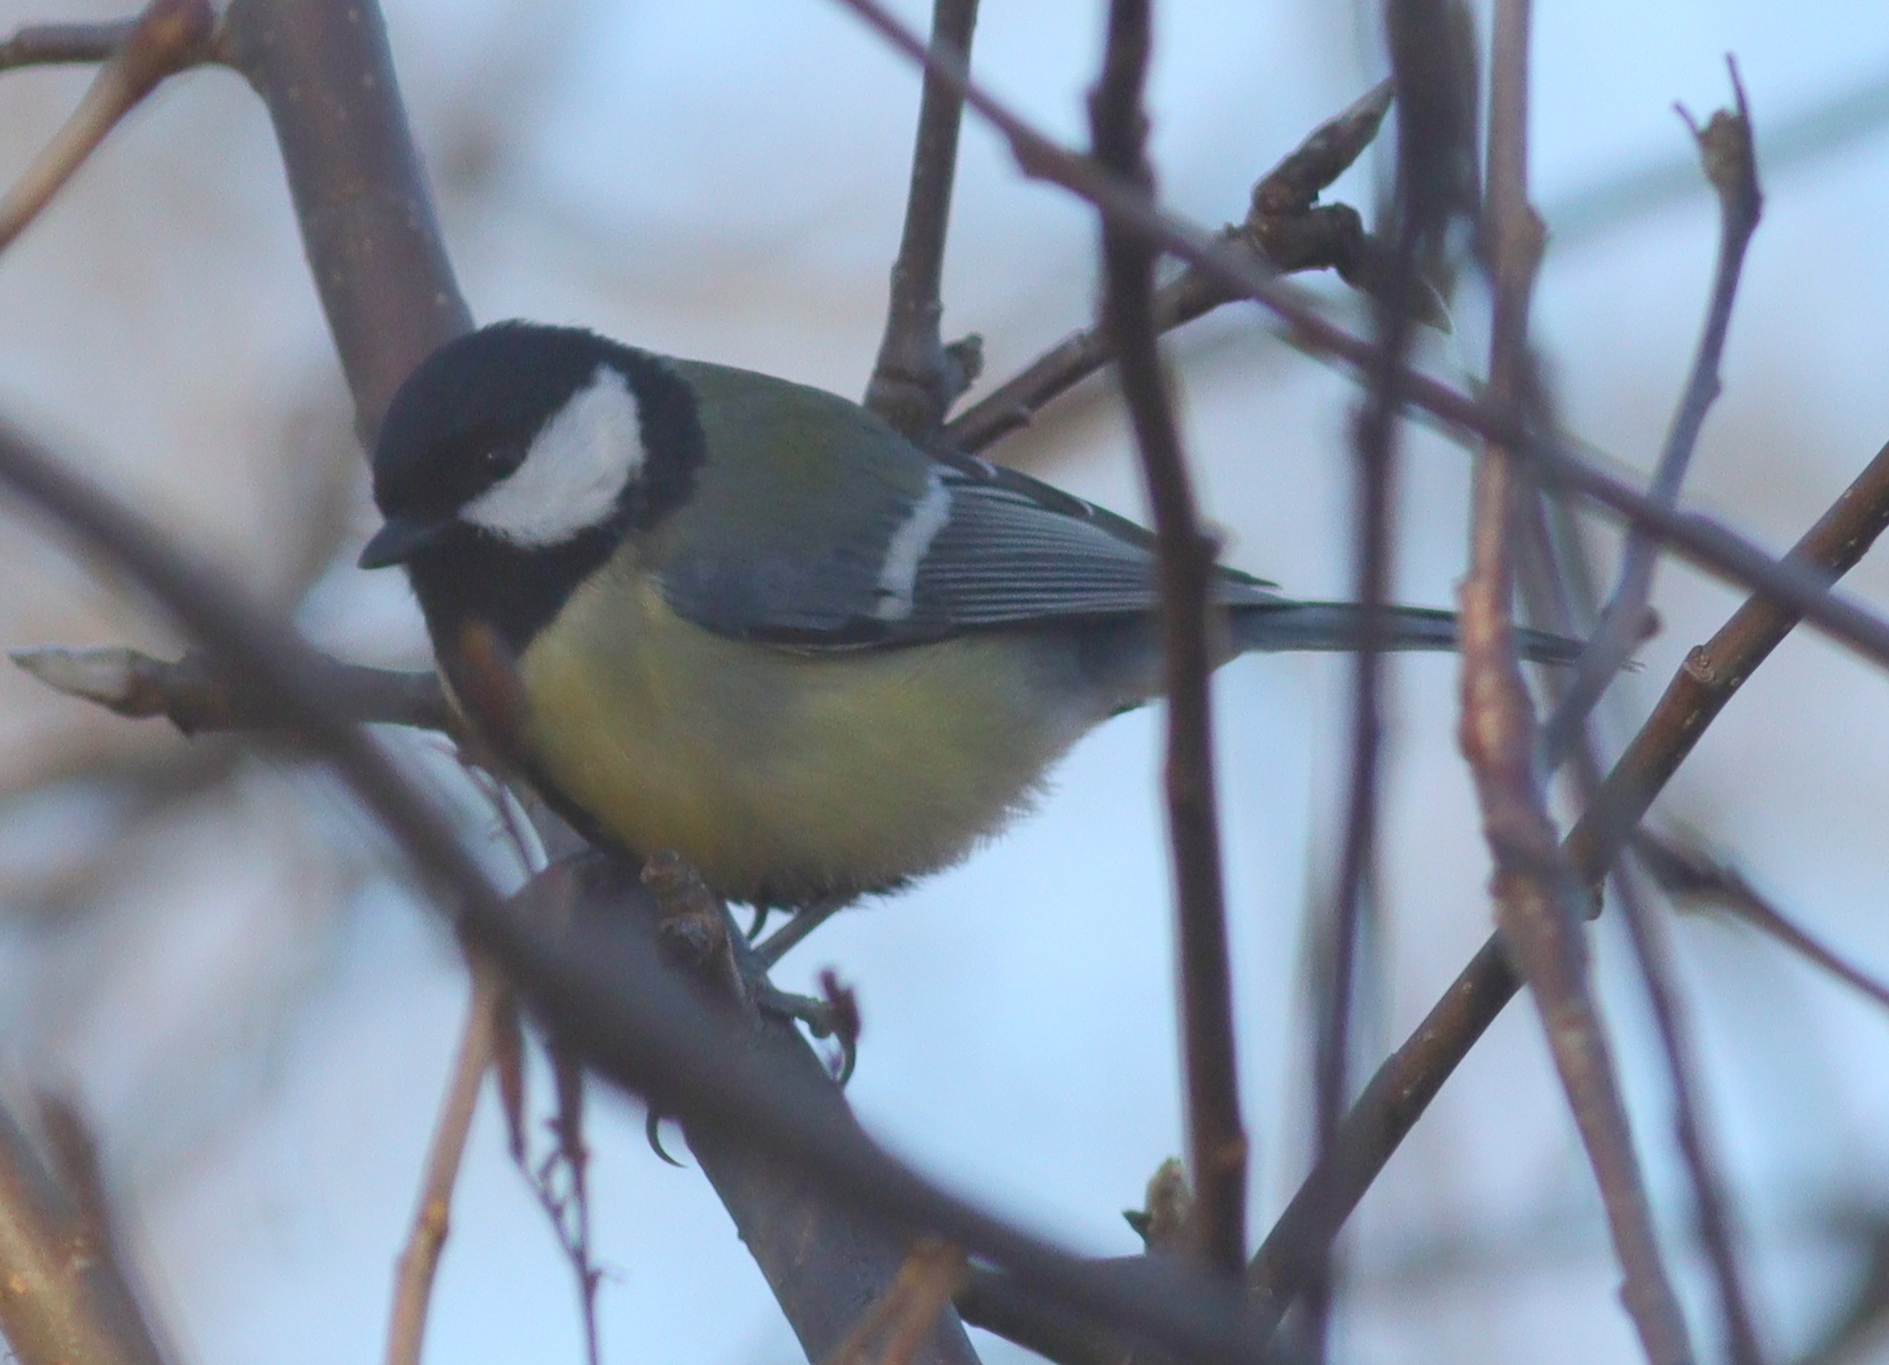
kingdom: Animalia
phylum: Chordata
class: Aves
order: Passeriformes
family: Paridae
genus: Parus
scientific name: Parus major
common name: Great tit
